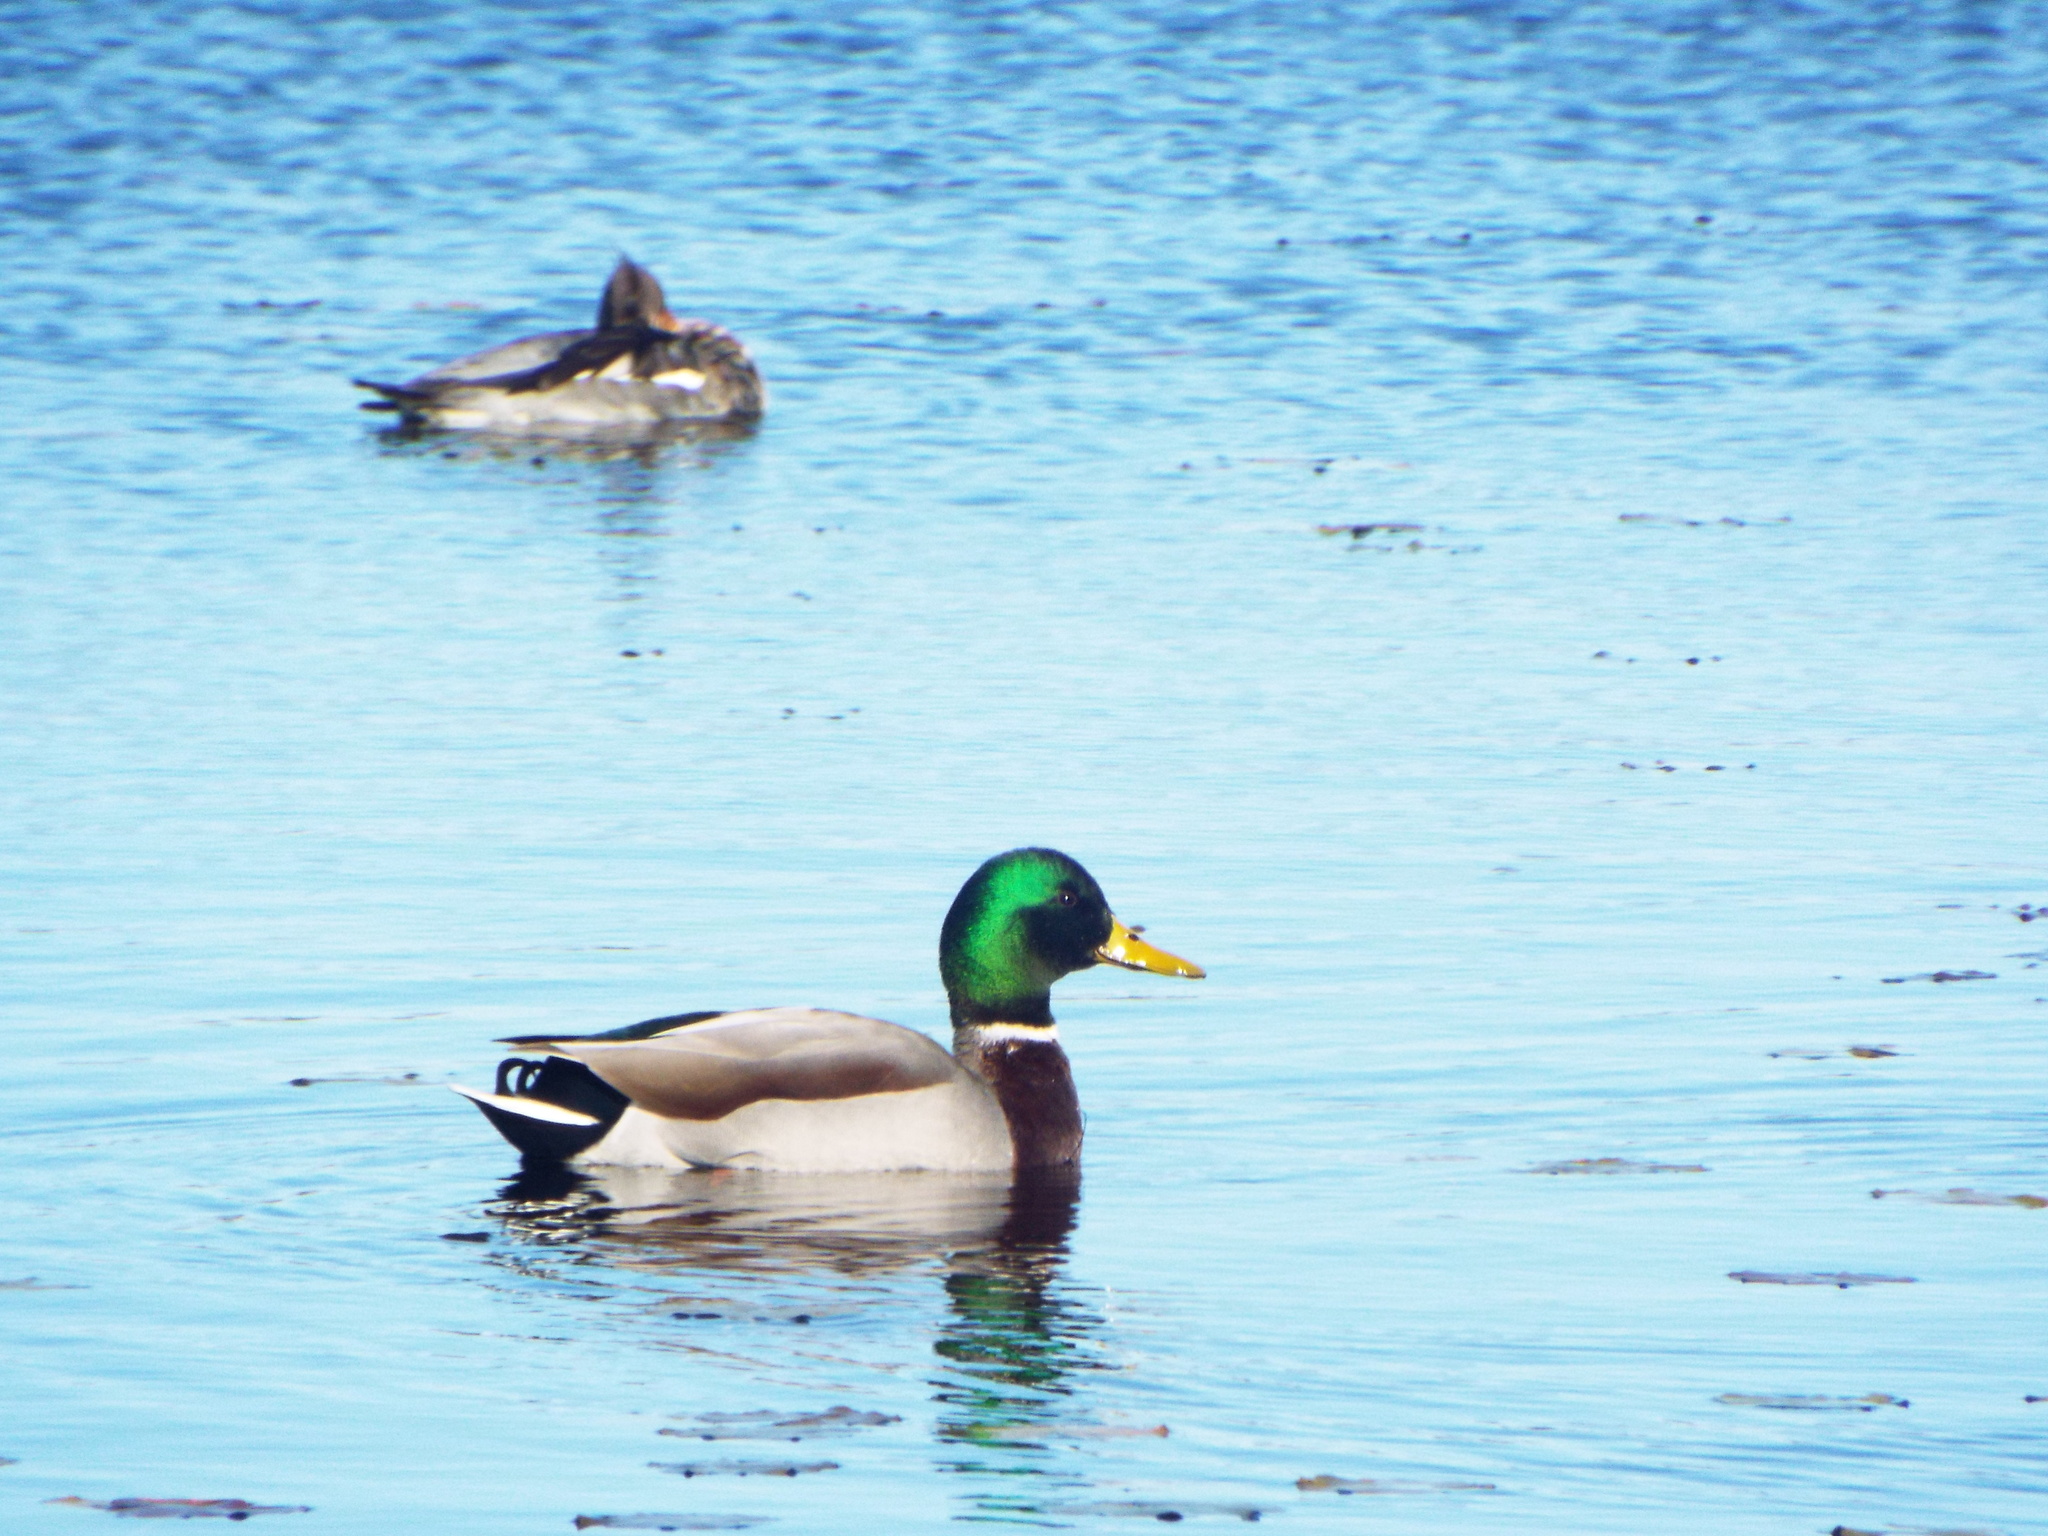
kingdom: Animalia
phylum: Chordata
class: Aves
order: Anseriformes
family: Anatidae
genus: Anas
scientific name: Anas platyrhynchos
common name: Mallard
